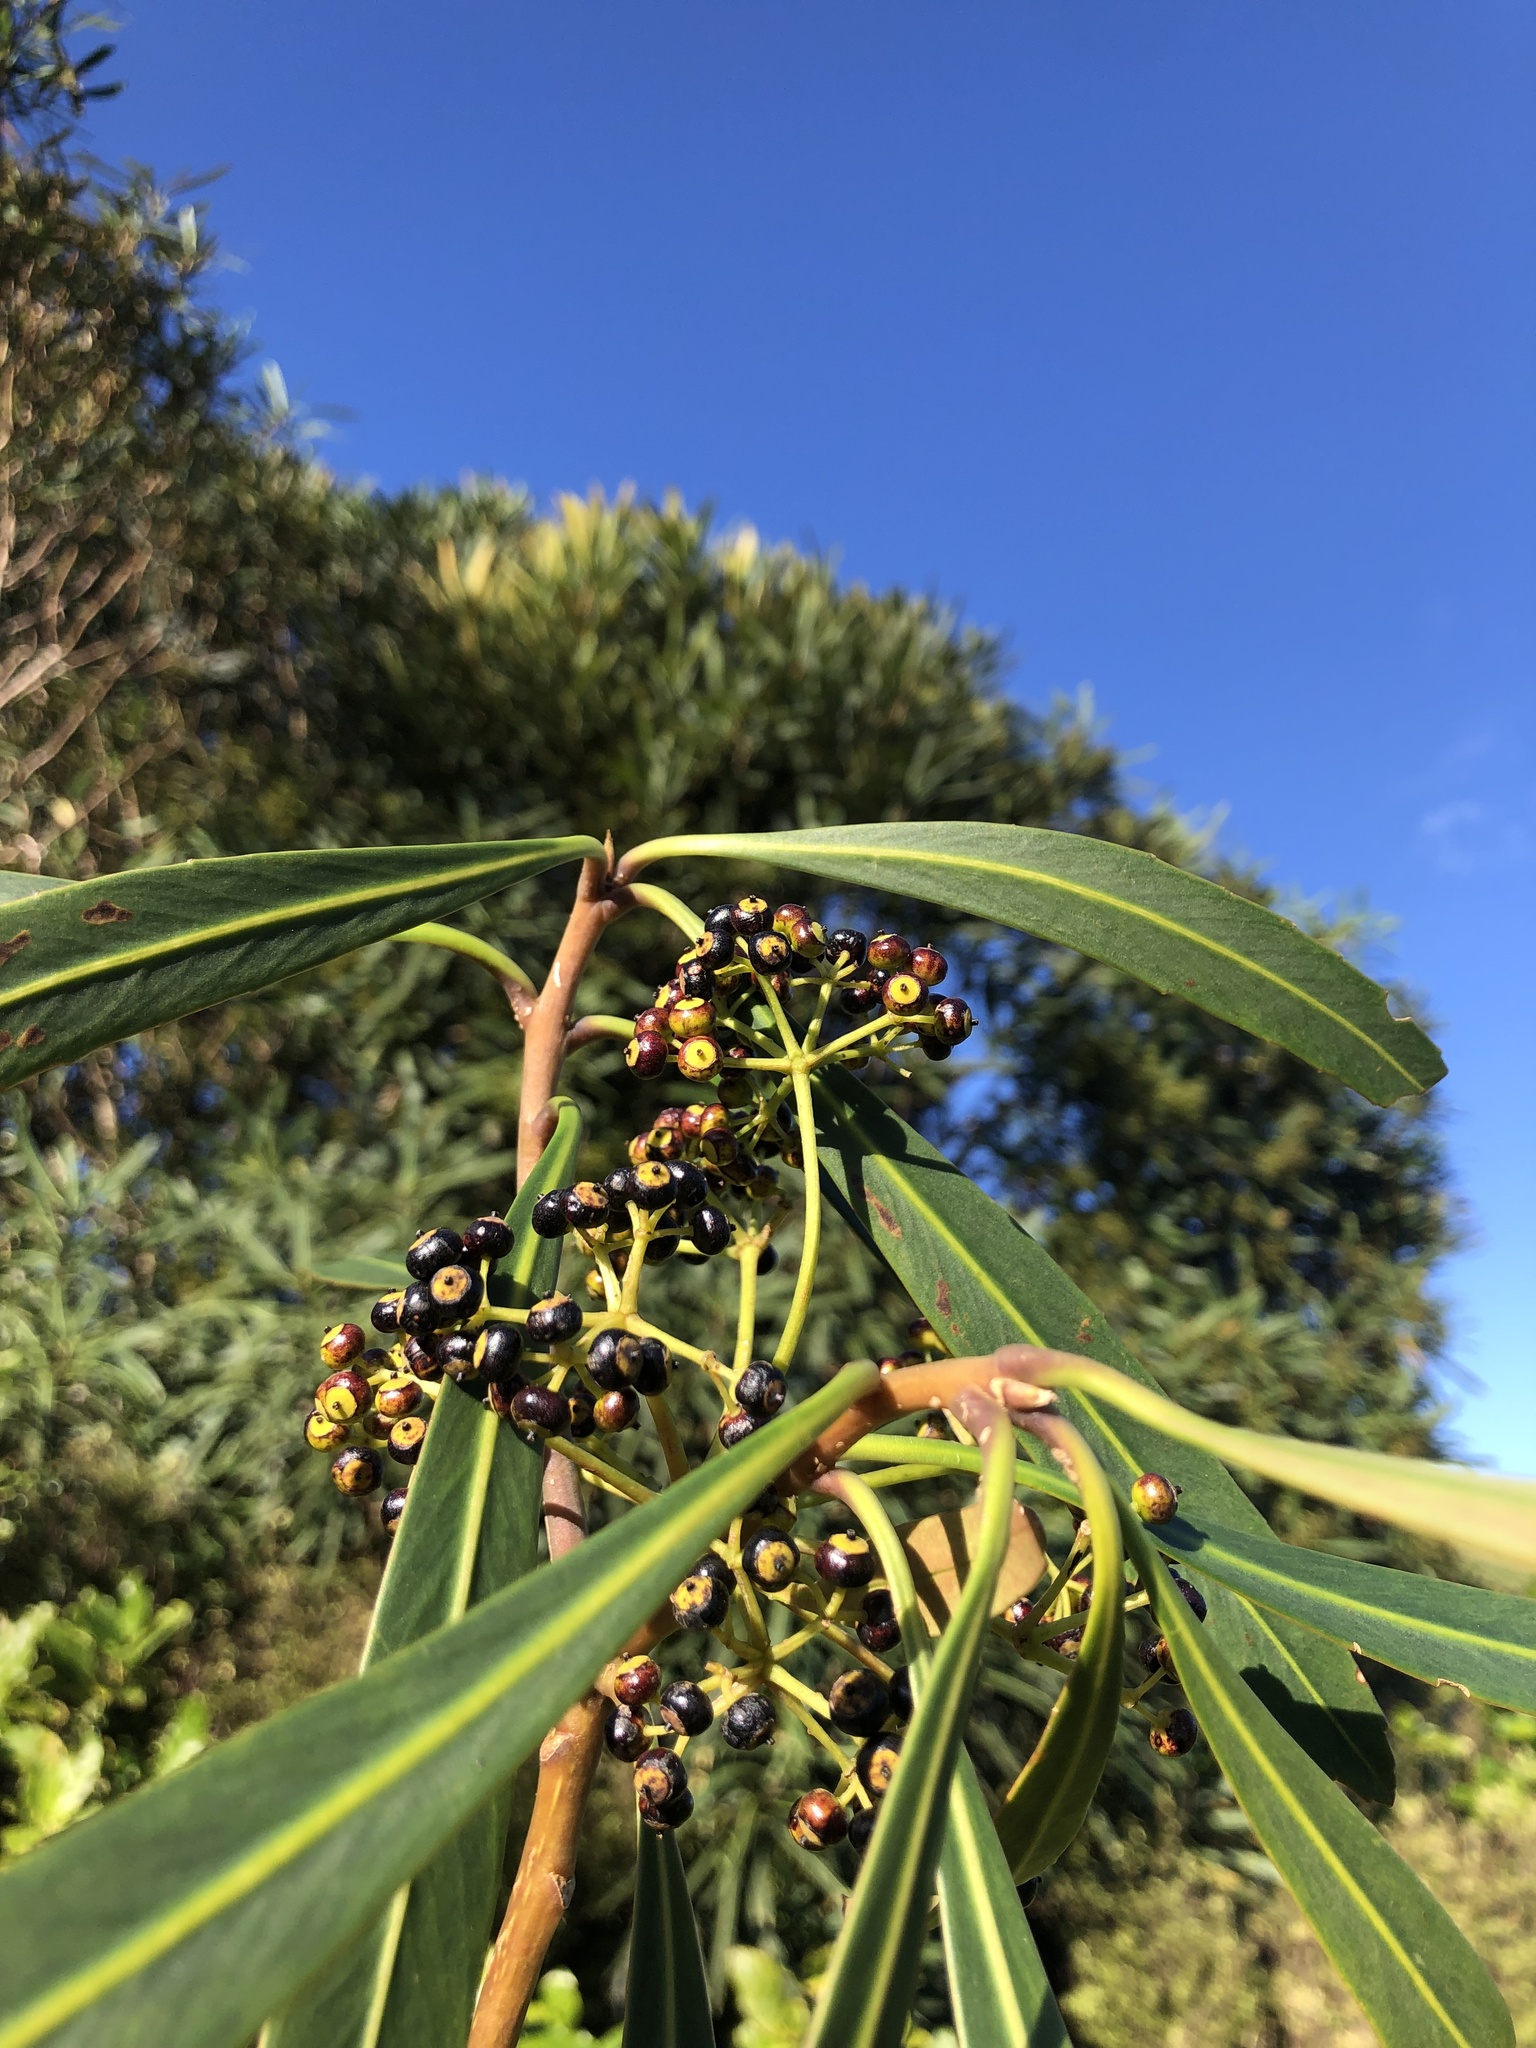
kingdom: Plantae
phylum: Tracheophyta
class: Magnoliopsida
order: Apiales
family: Araliaceae
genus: Pseudopanax
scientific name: Pseudopanax crassifolius
